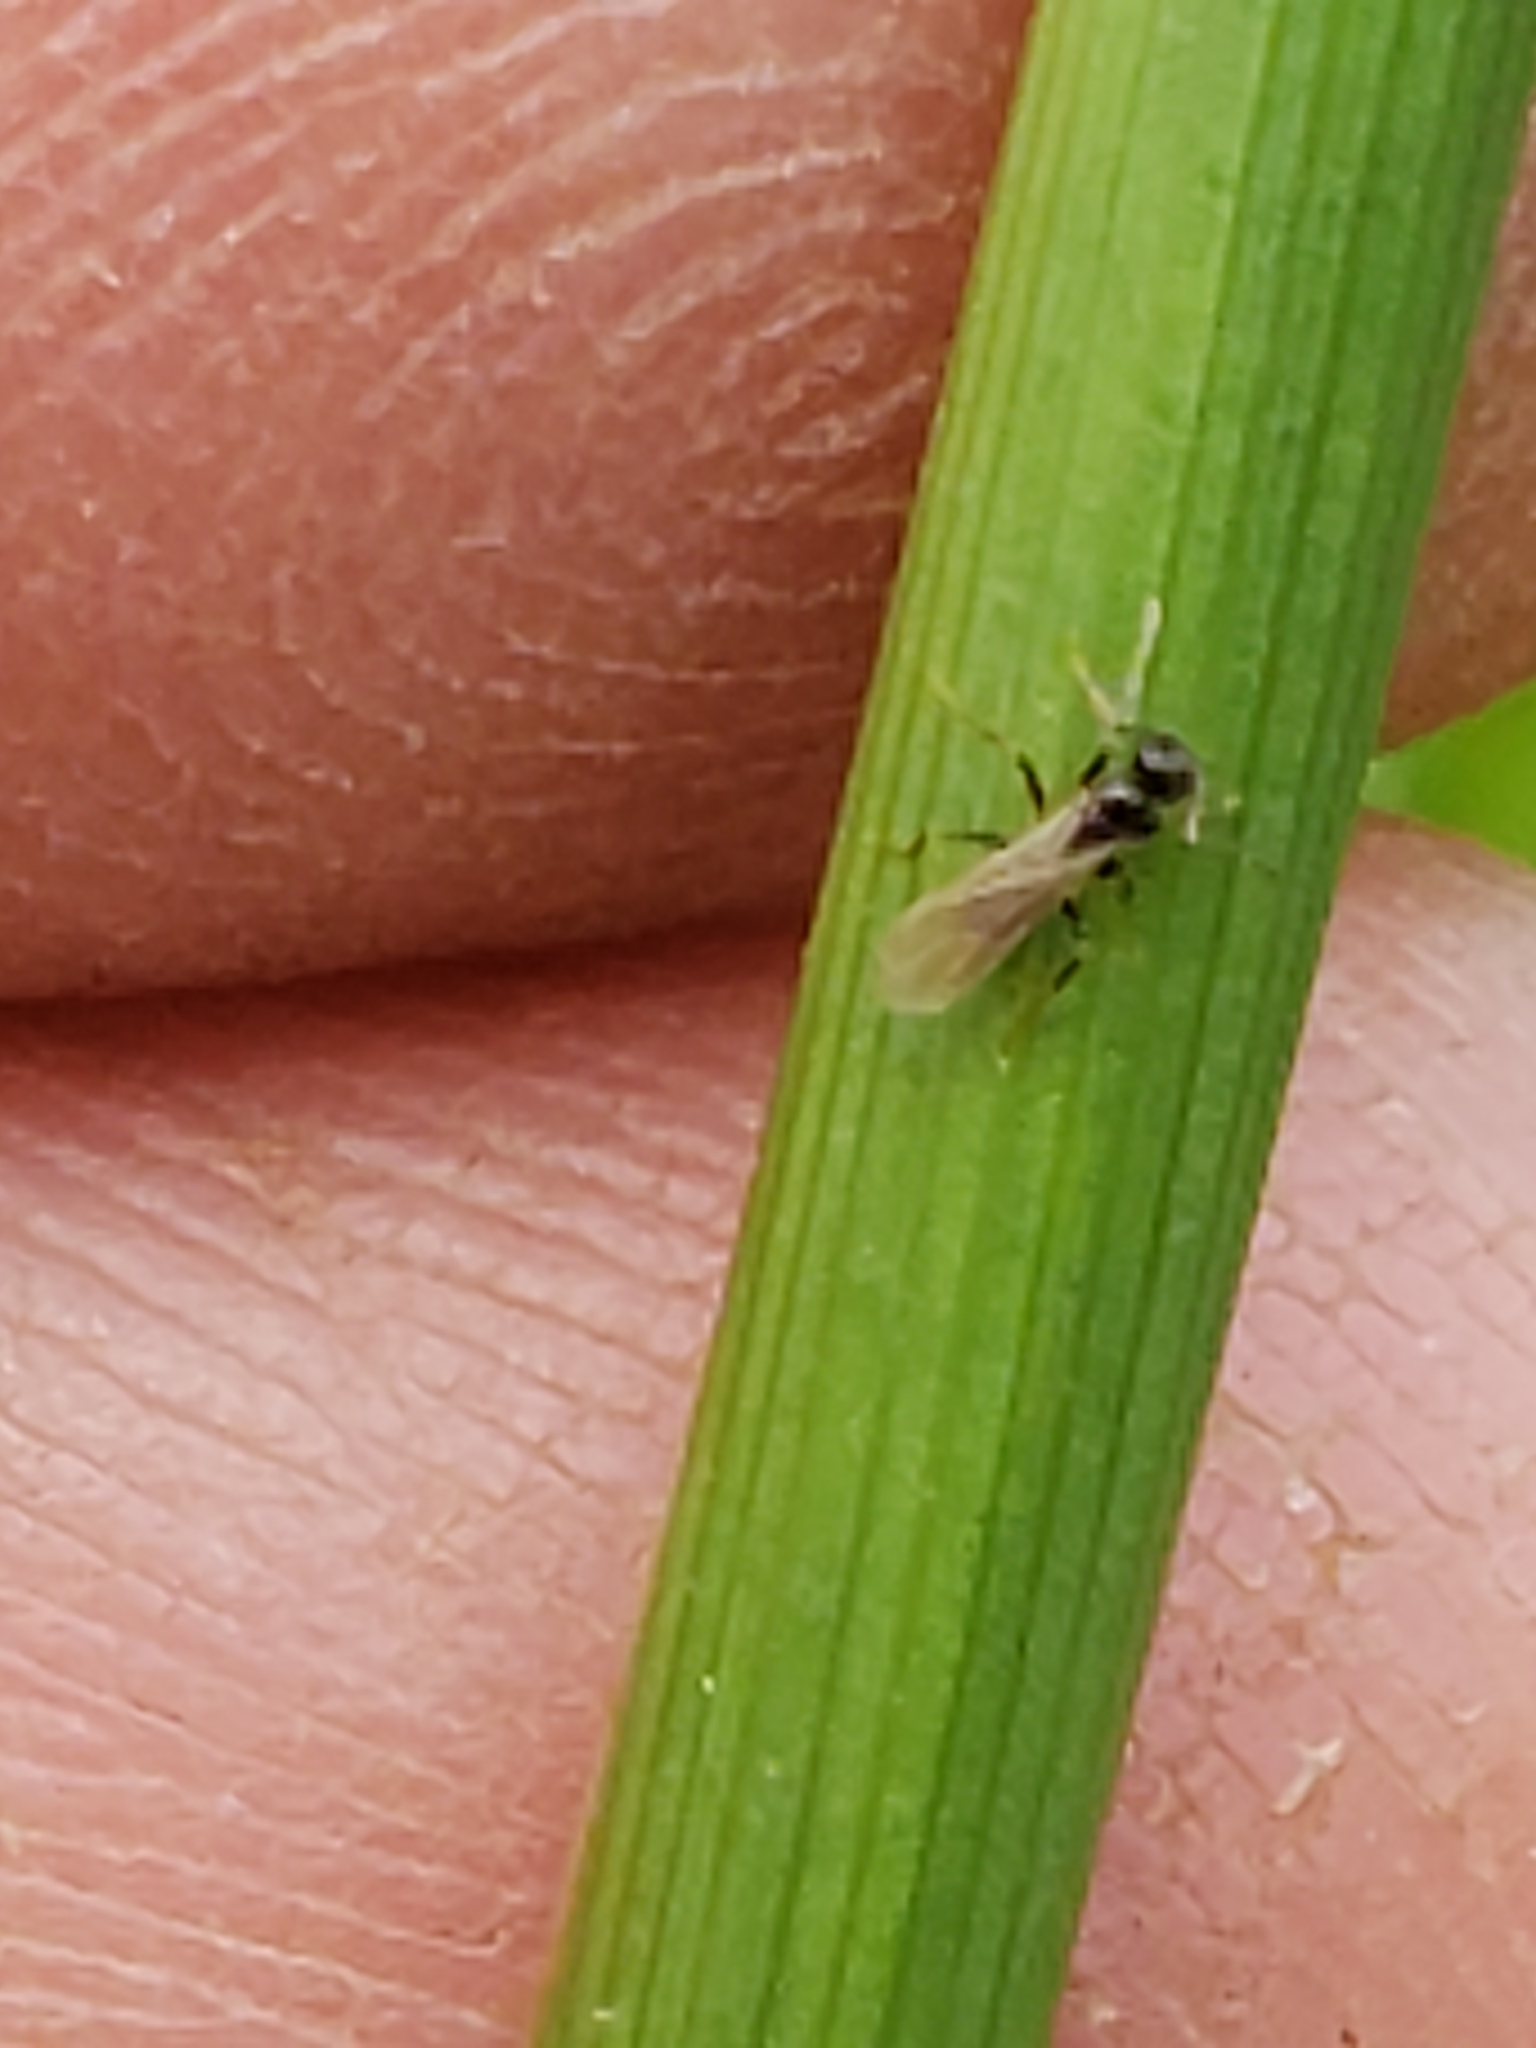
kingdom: Animalia
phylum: Arthropoda
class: Insecta
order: Hymenoptera
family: Formicidae
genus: Tapinoma
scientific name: Tapinoma sessile
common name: Odorous house ant
